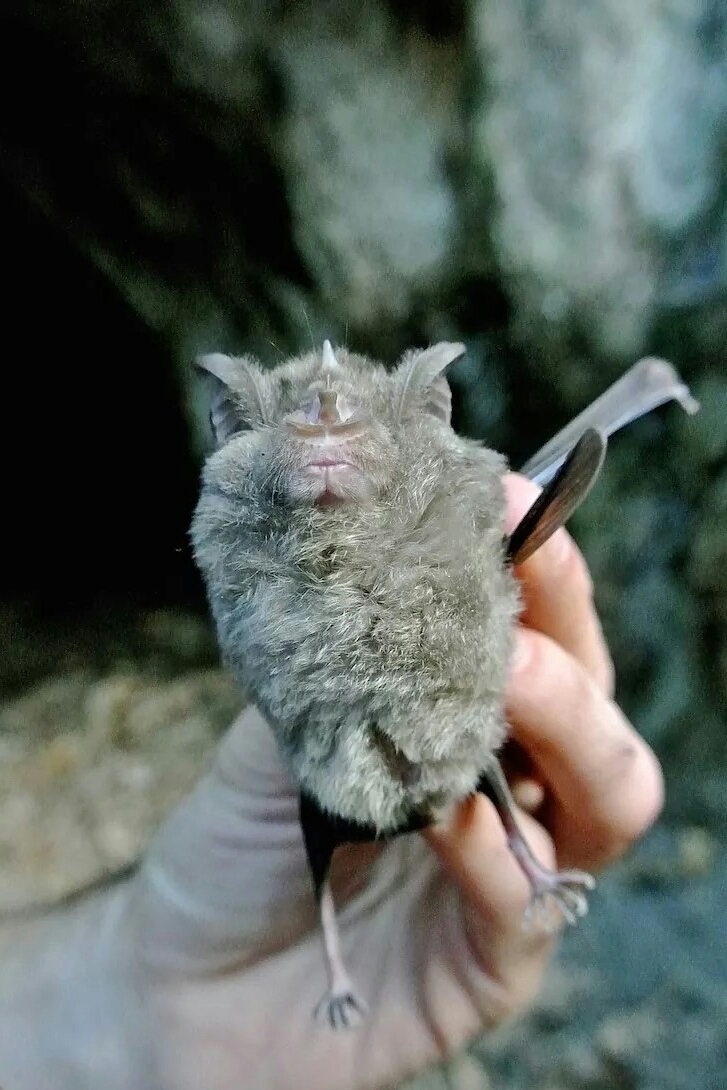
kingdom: Animalia
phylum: Chordata
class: Mammalia
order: Chiroptera
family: Rhinolophidae
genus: Rhinolophus
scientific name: Rhinolophus ferrumequinum
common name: Greater horseshoe bat
